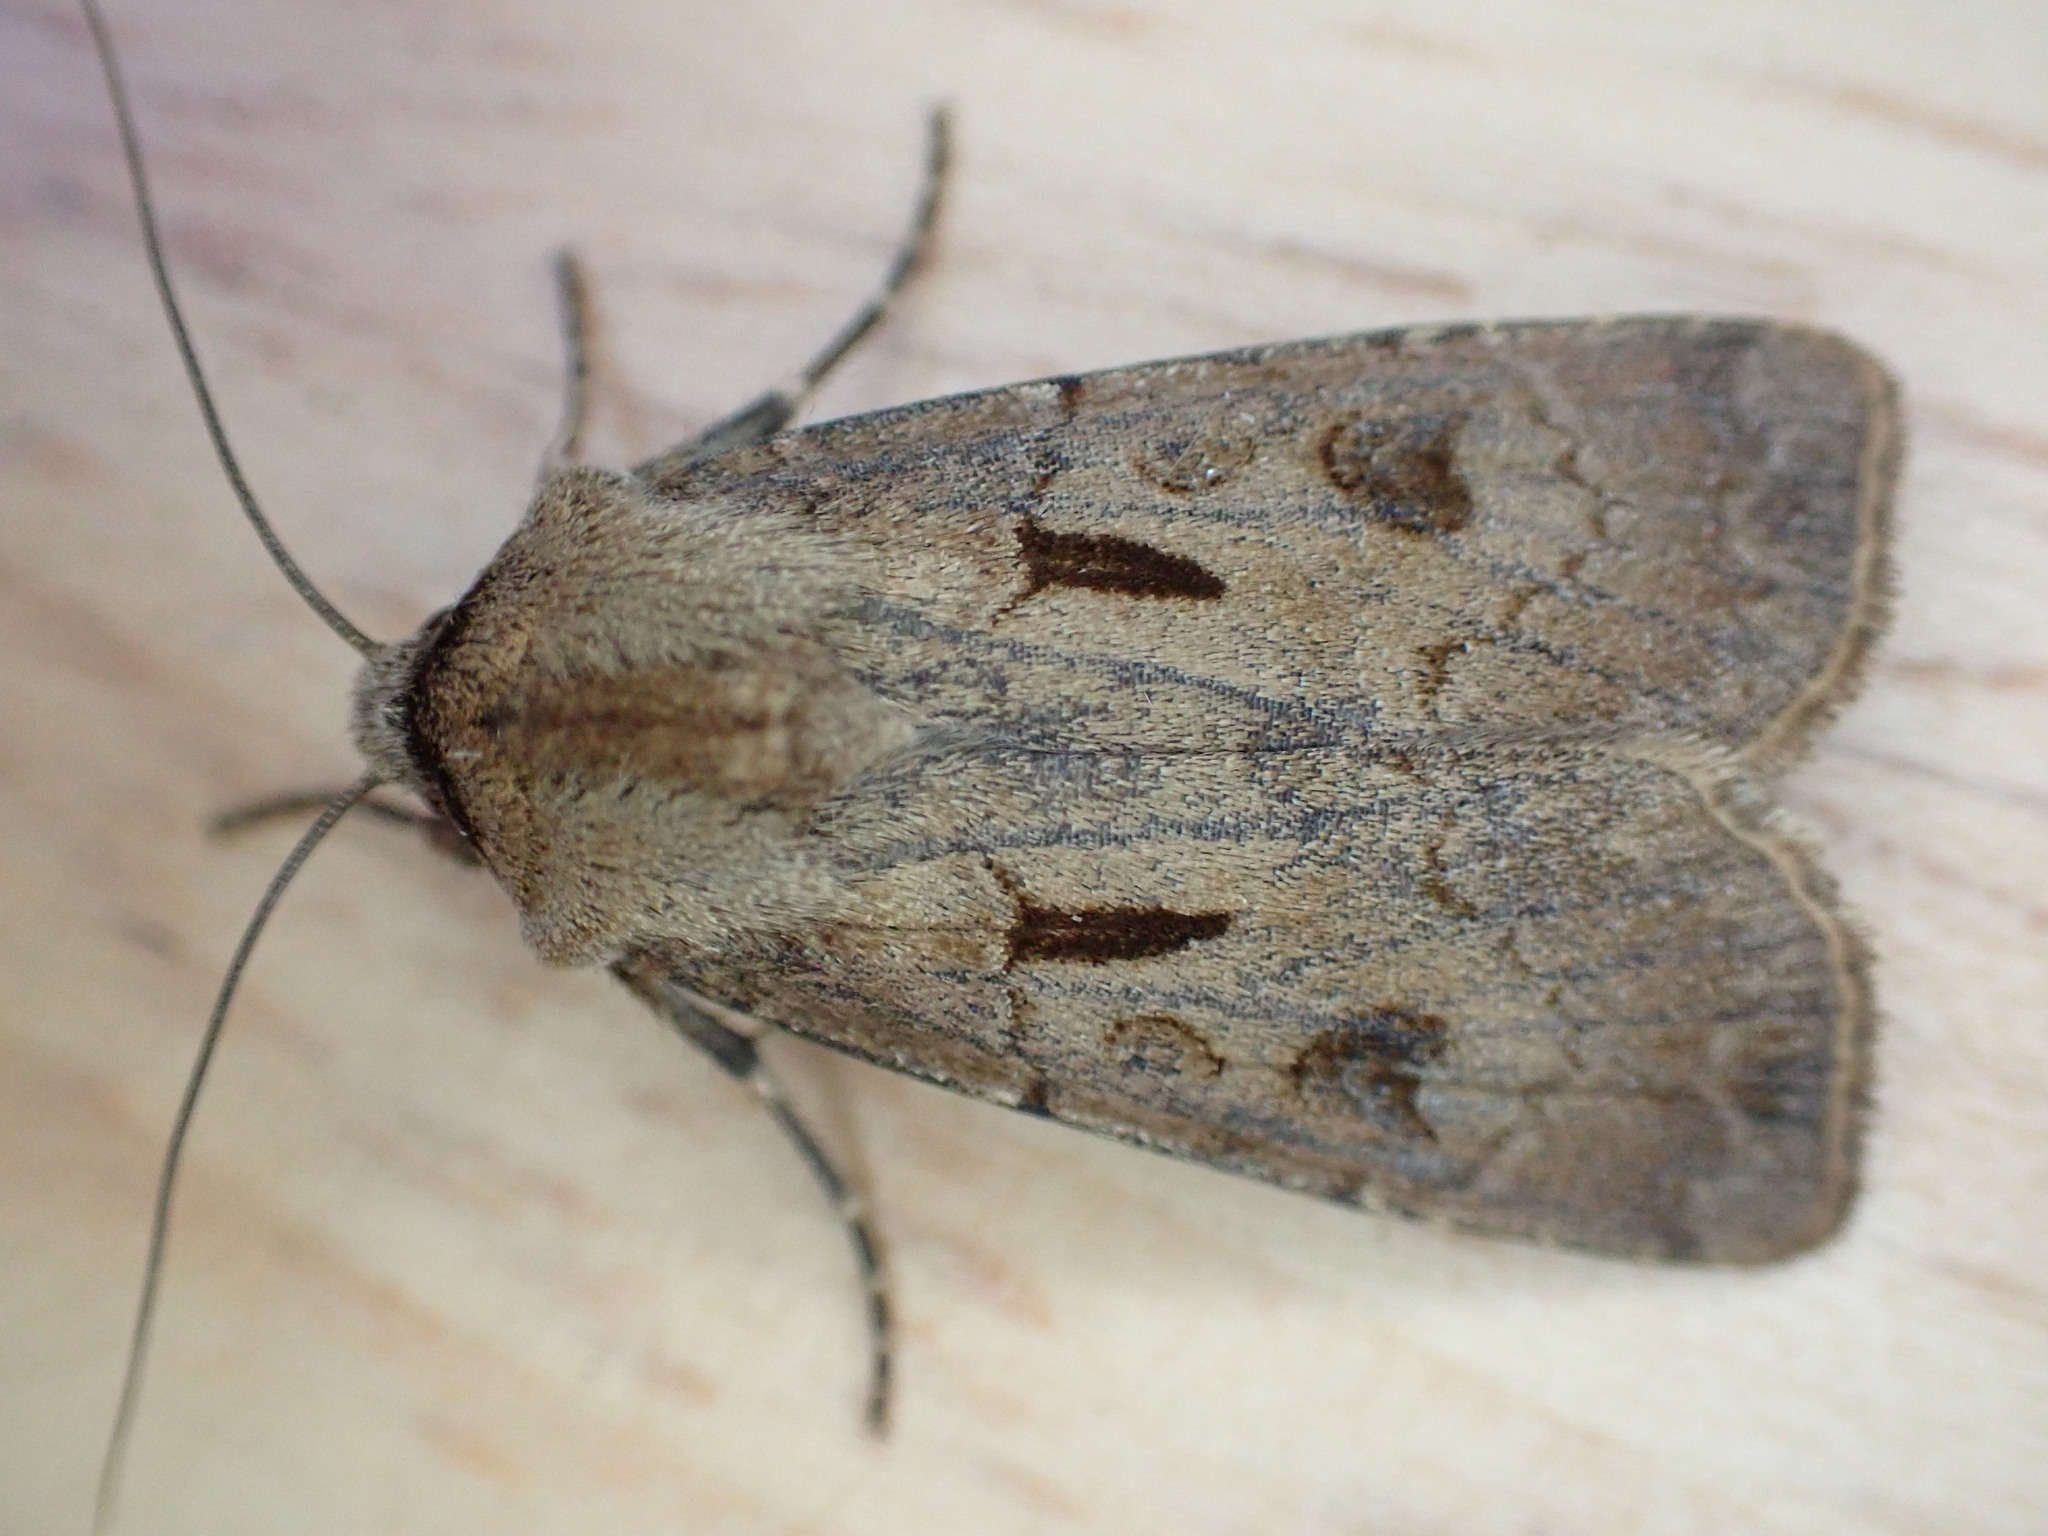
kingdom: Animalia
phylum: Arthropoda
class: Insecta
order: Lepidoptera
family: Noctuidae
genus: Agrotis
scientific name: Agrotis exclamationis
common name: Heart and dart
